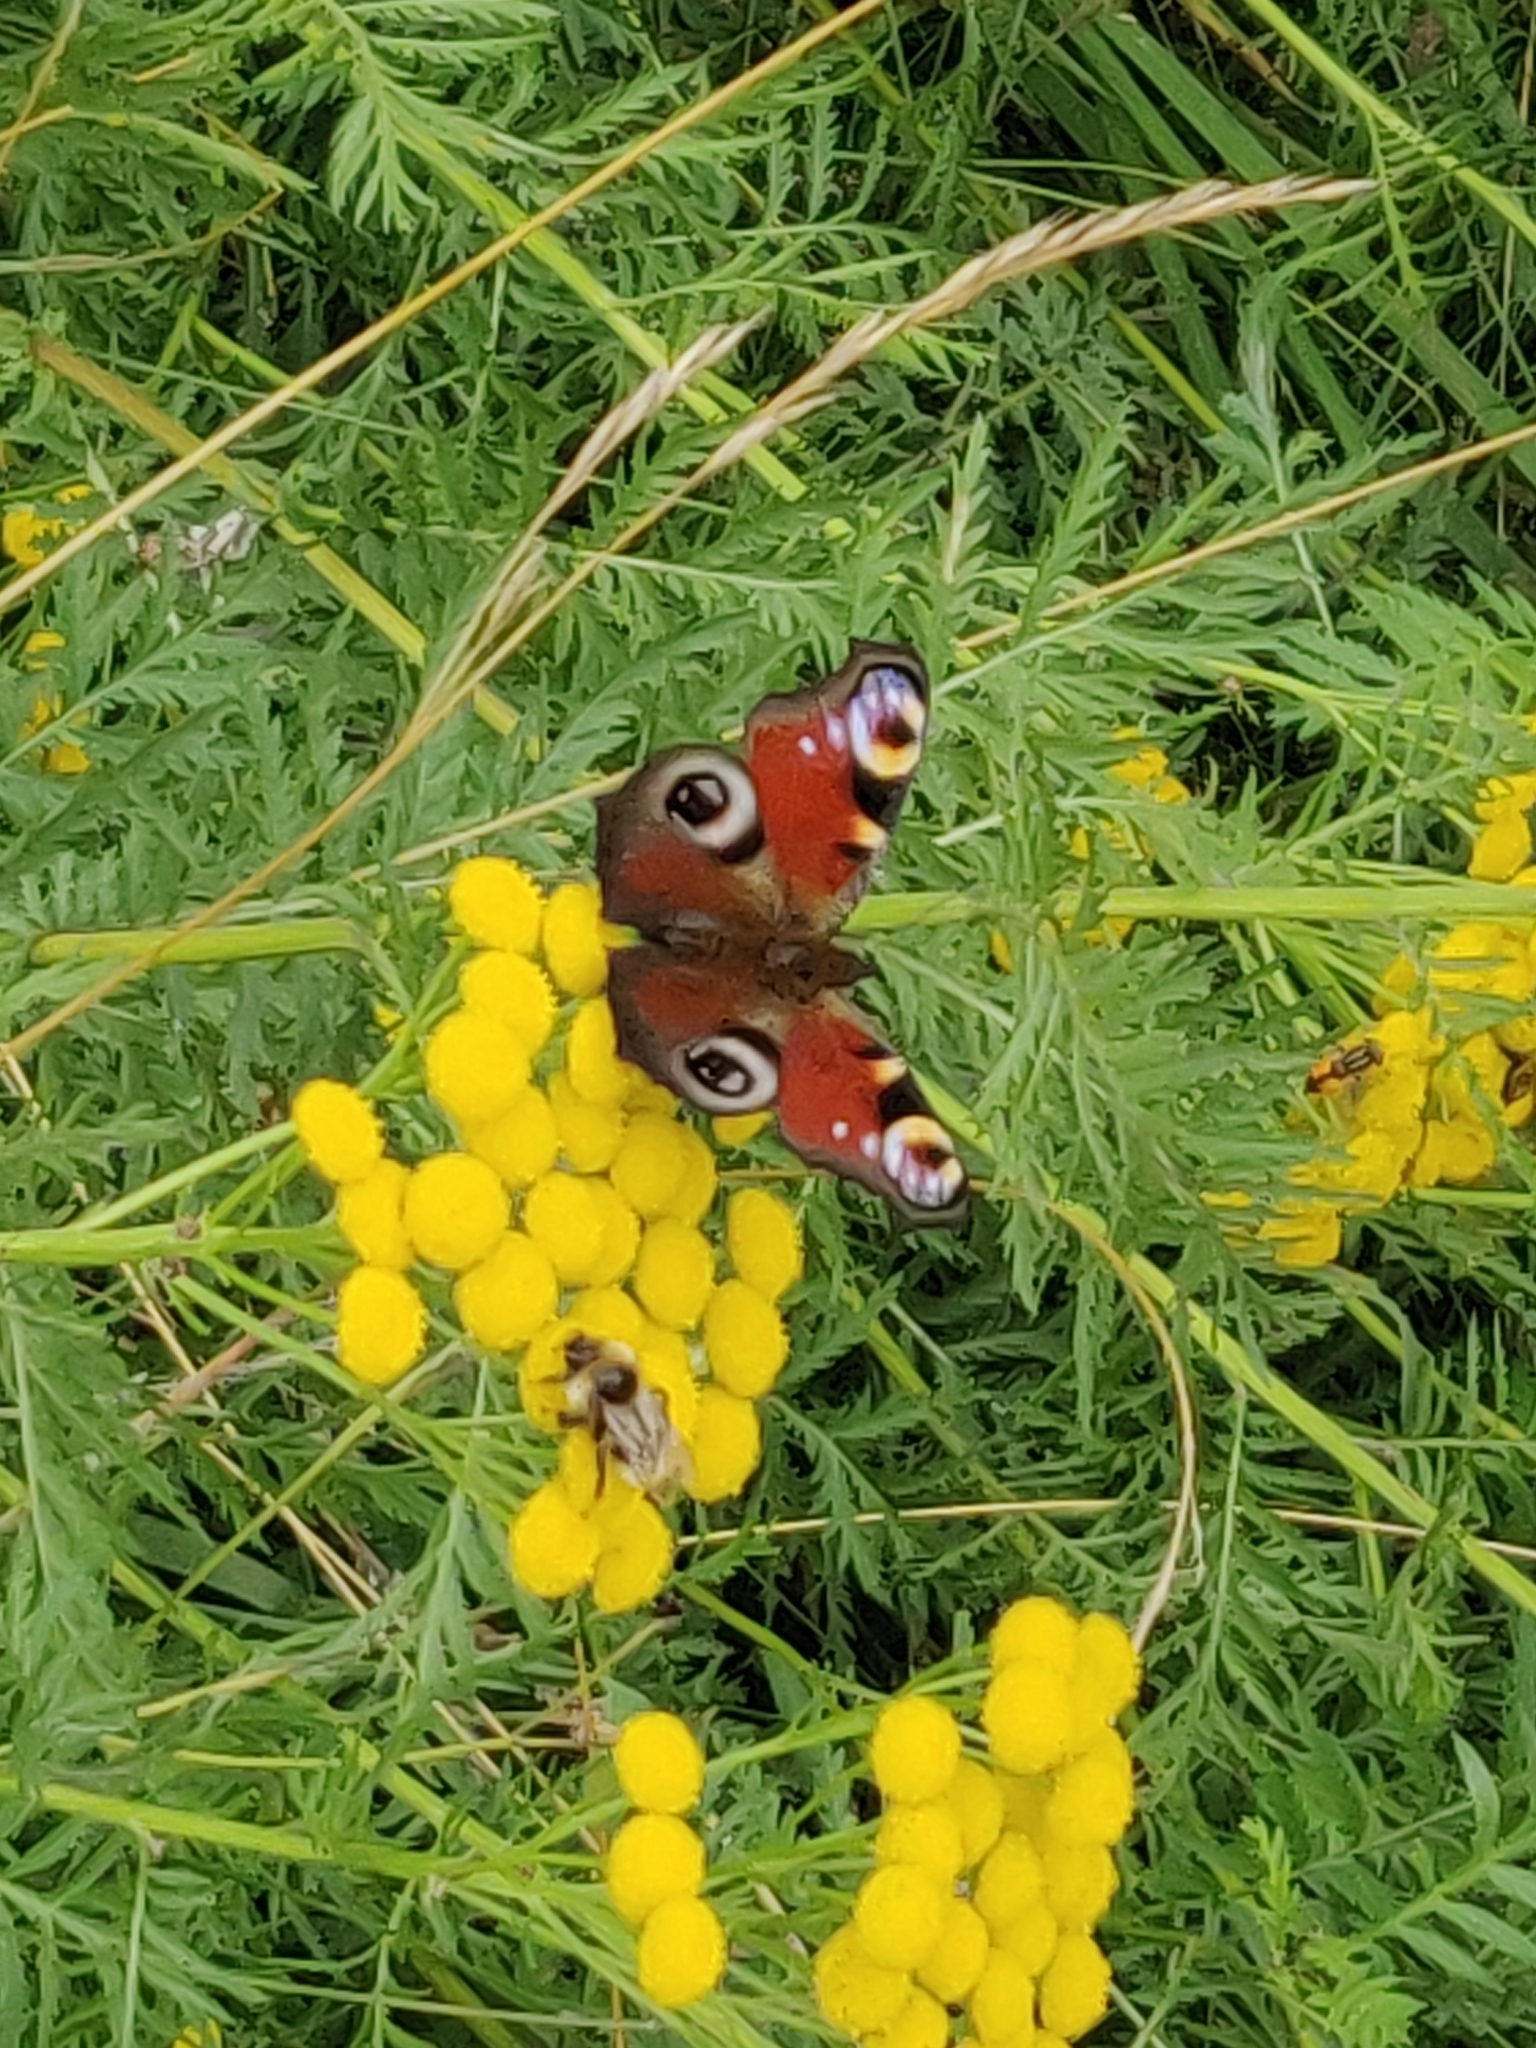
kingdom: Animalia
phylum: Arthropoda
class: Insecta
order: Lepidoptera
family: Nymphalidae
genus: Aglais
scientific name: Aglais io
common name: Peacock
